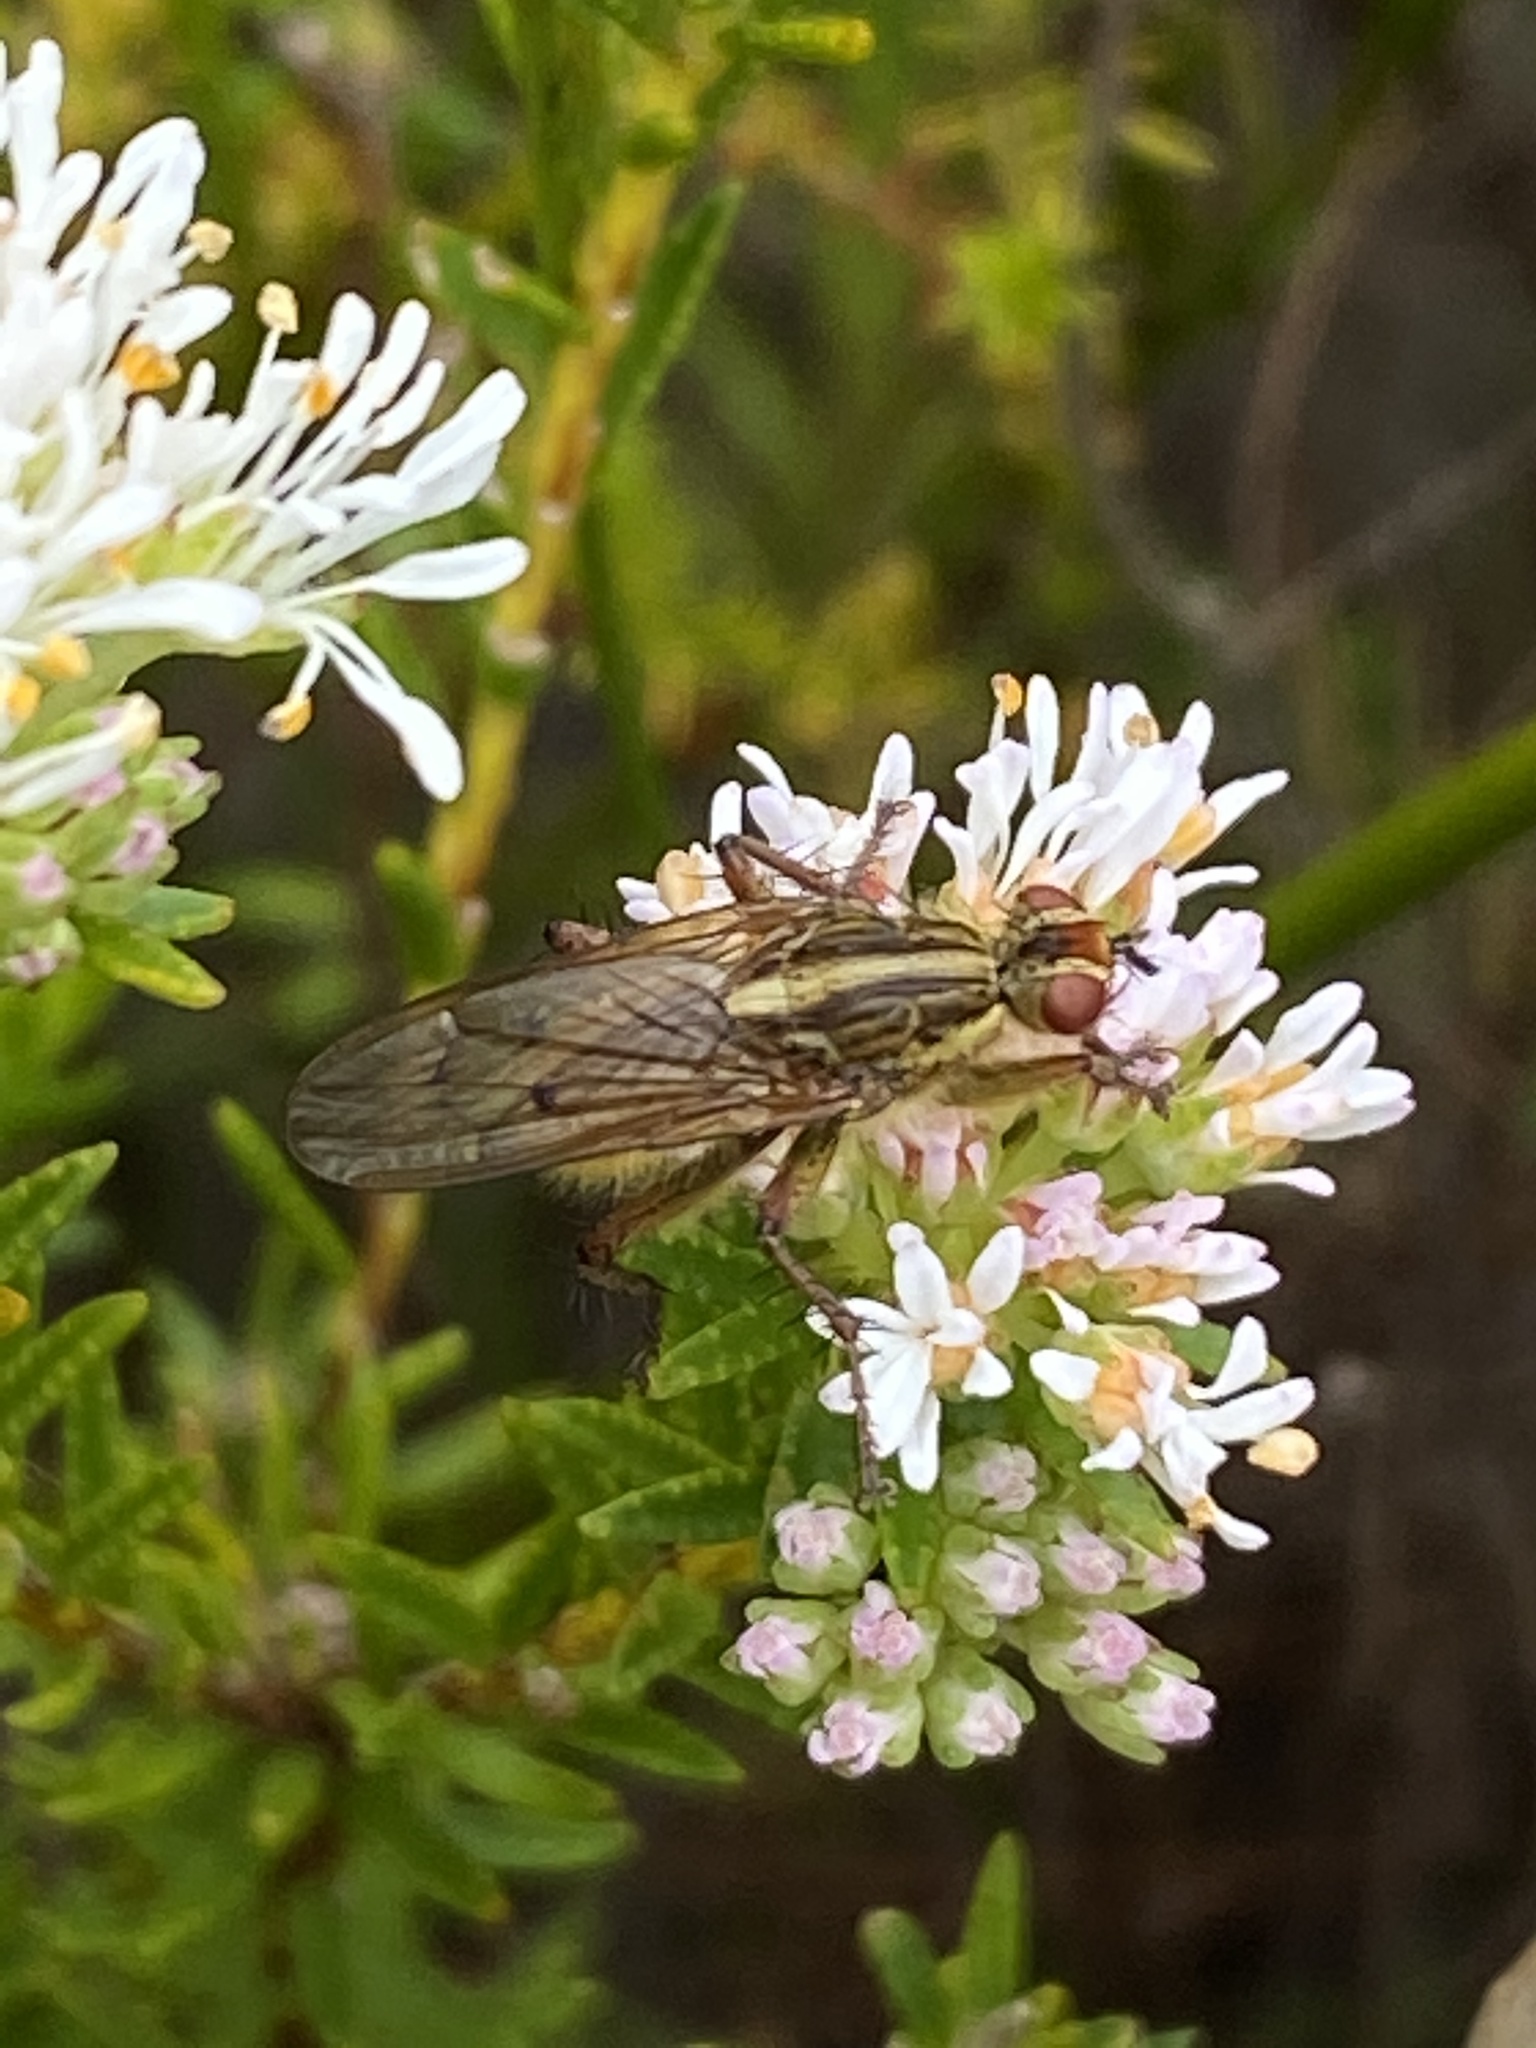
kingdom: Animalia
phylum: Arthropoda
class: Insecta
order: Diptera
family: Scathophagidae
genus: Scathophaga
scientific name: Scathophaga soror
